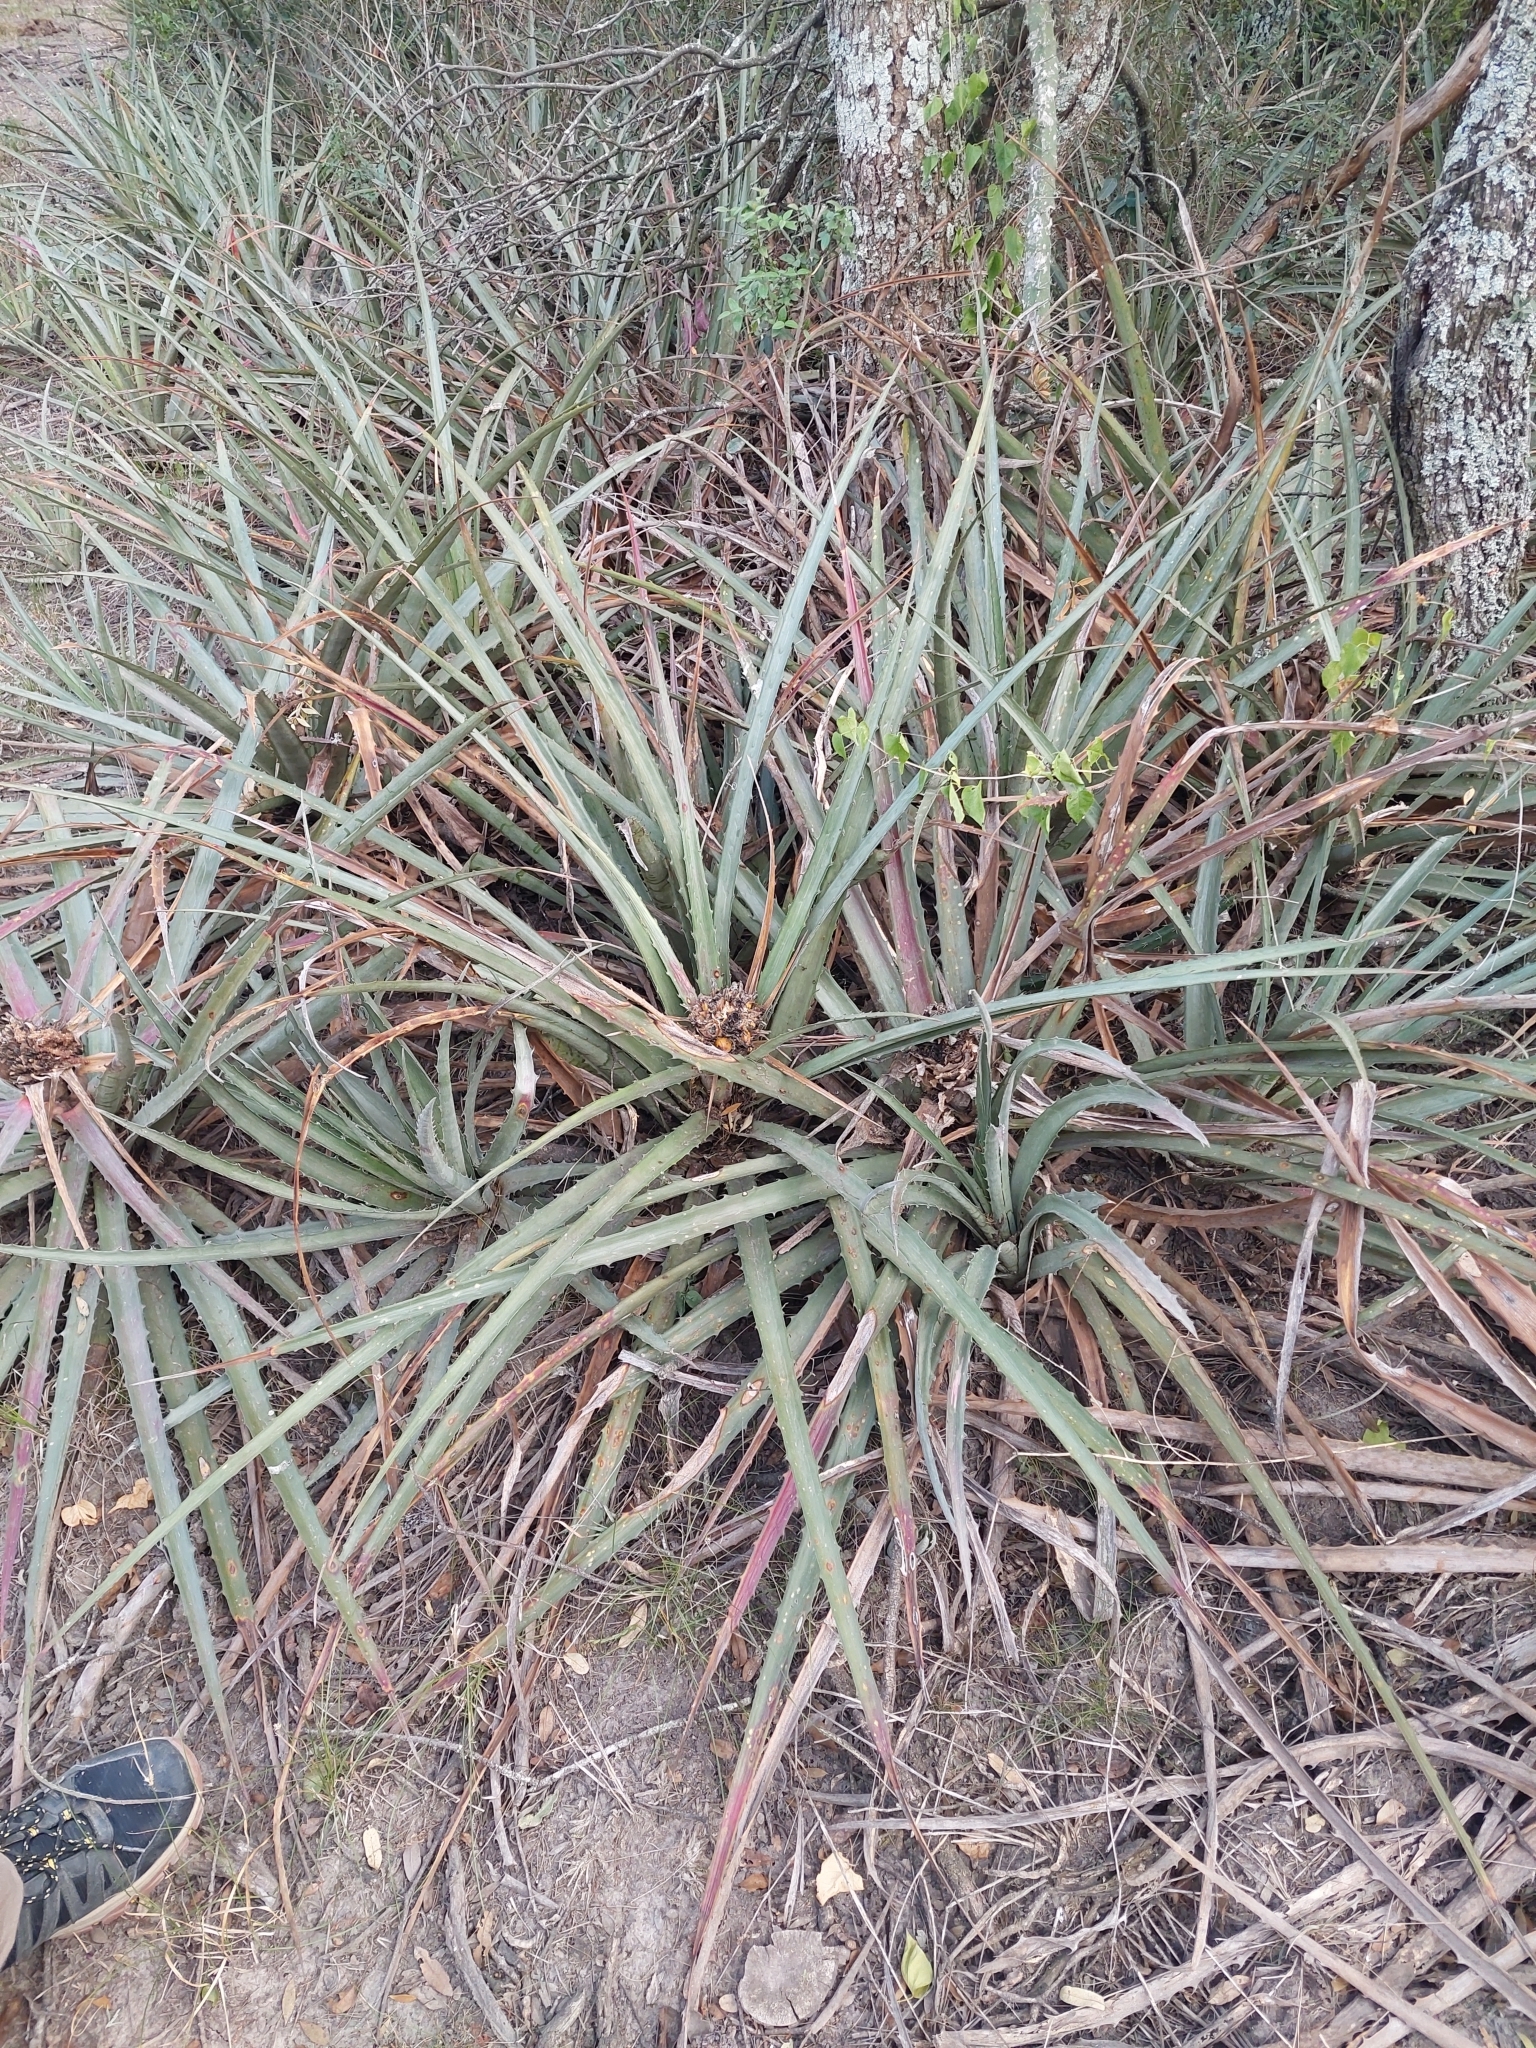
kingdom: Plantae
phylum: Tracheophyta
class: Liliopsida
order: Poales
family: Bromeliaceae
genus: Bromelia
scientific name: Bromelia serra
